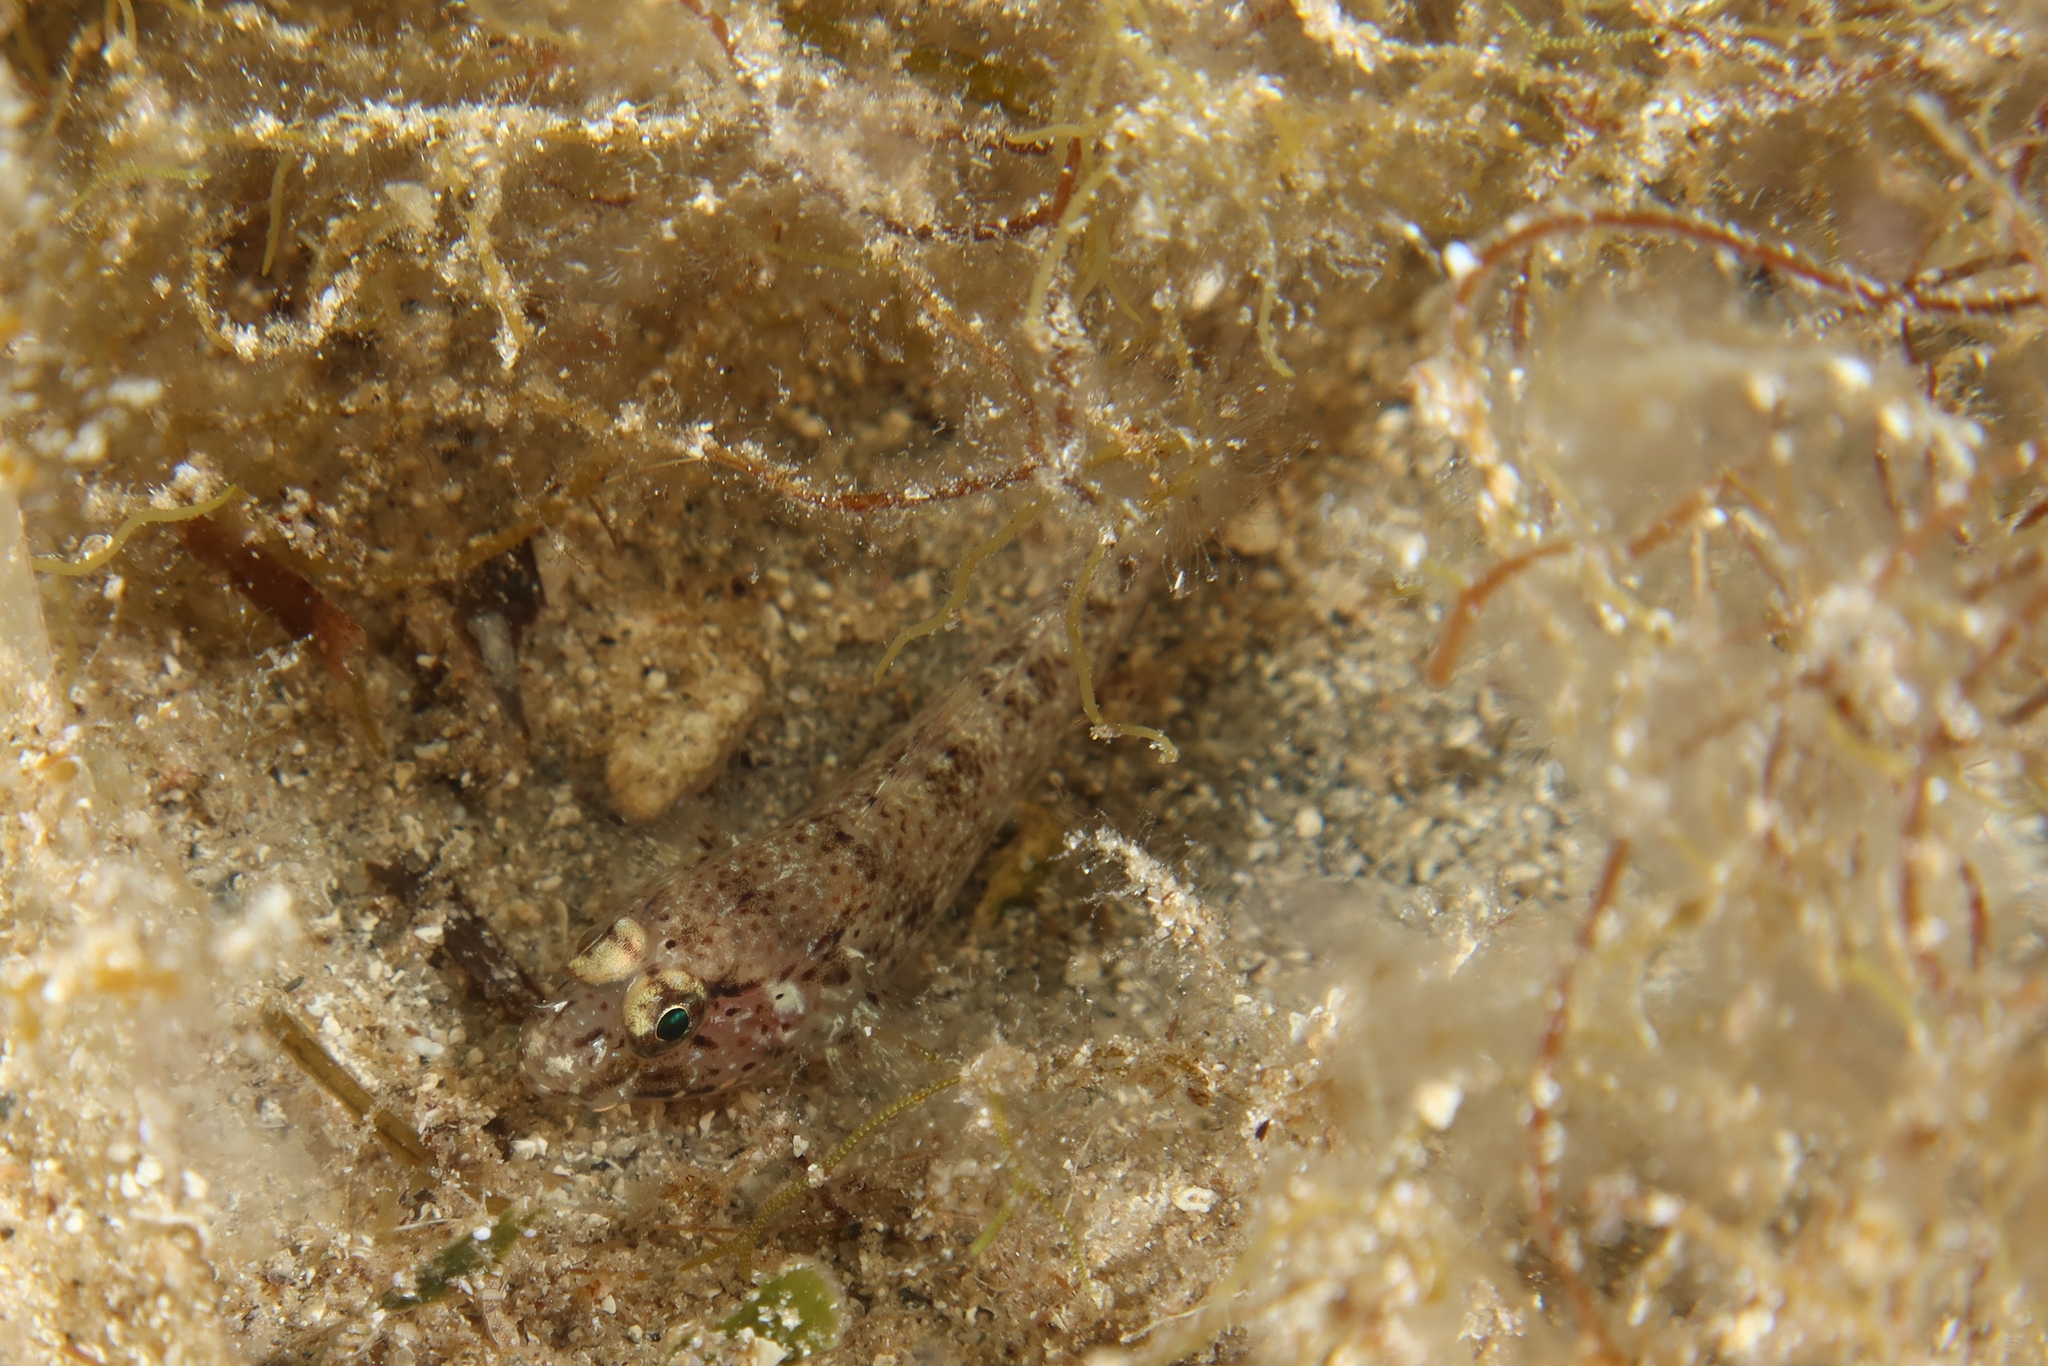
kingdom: Animalia
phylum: Chordata
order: Perciformes
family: Gobiidae
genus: Gobius
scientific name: Gobius incognitus
